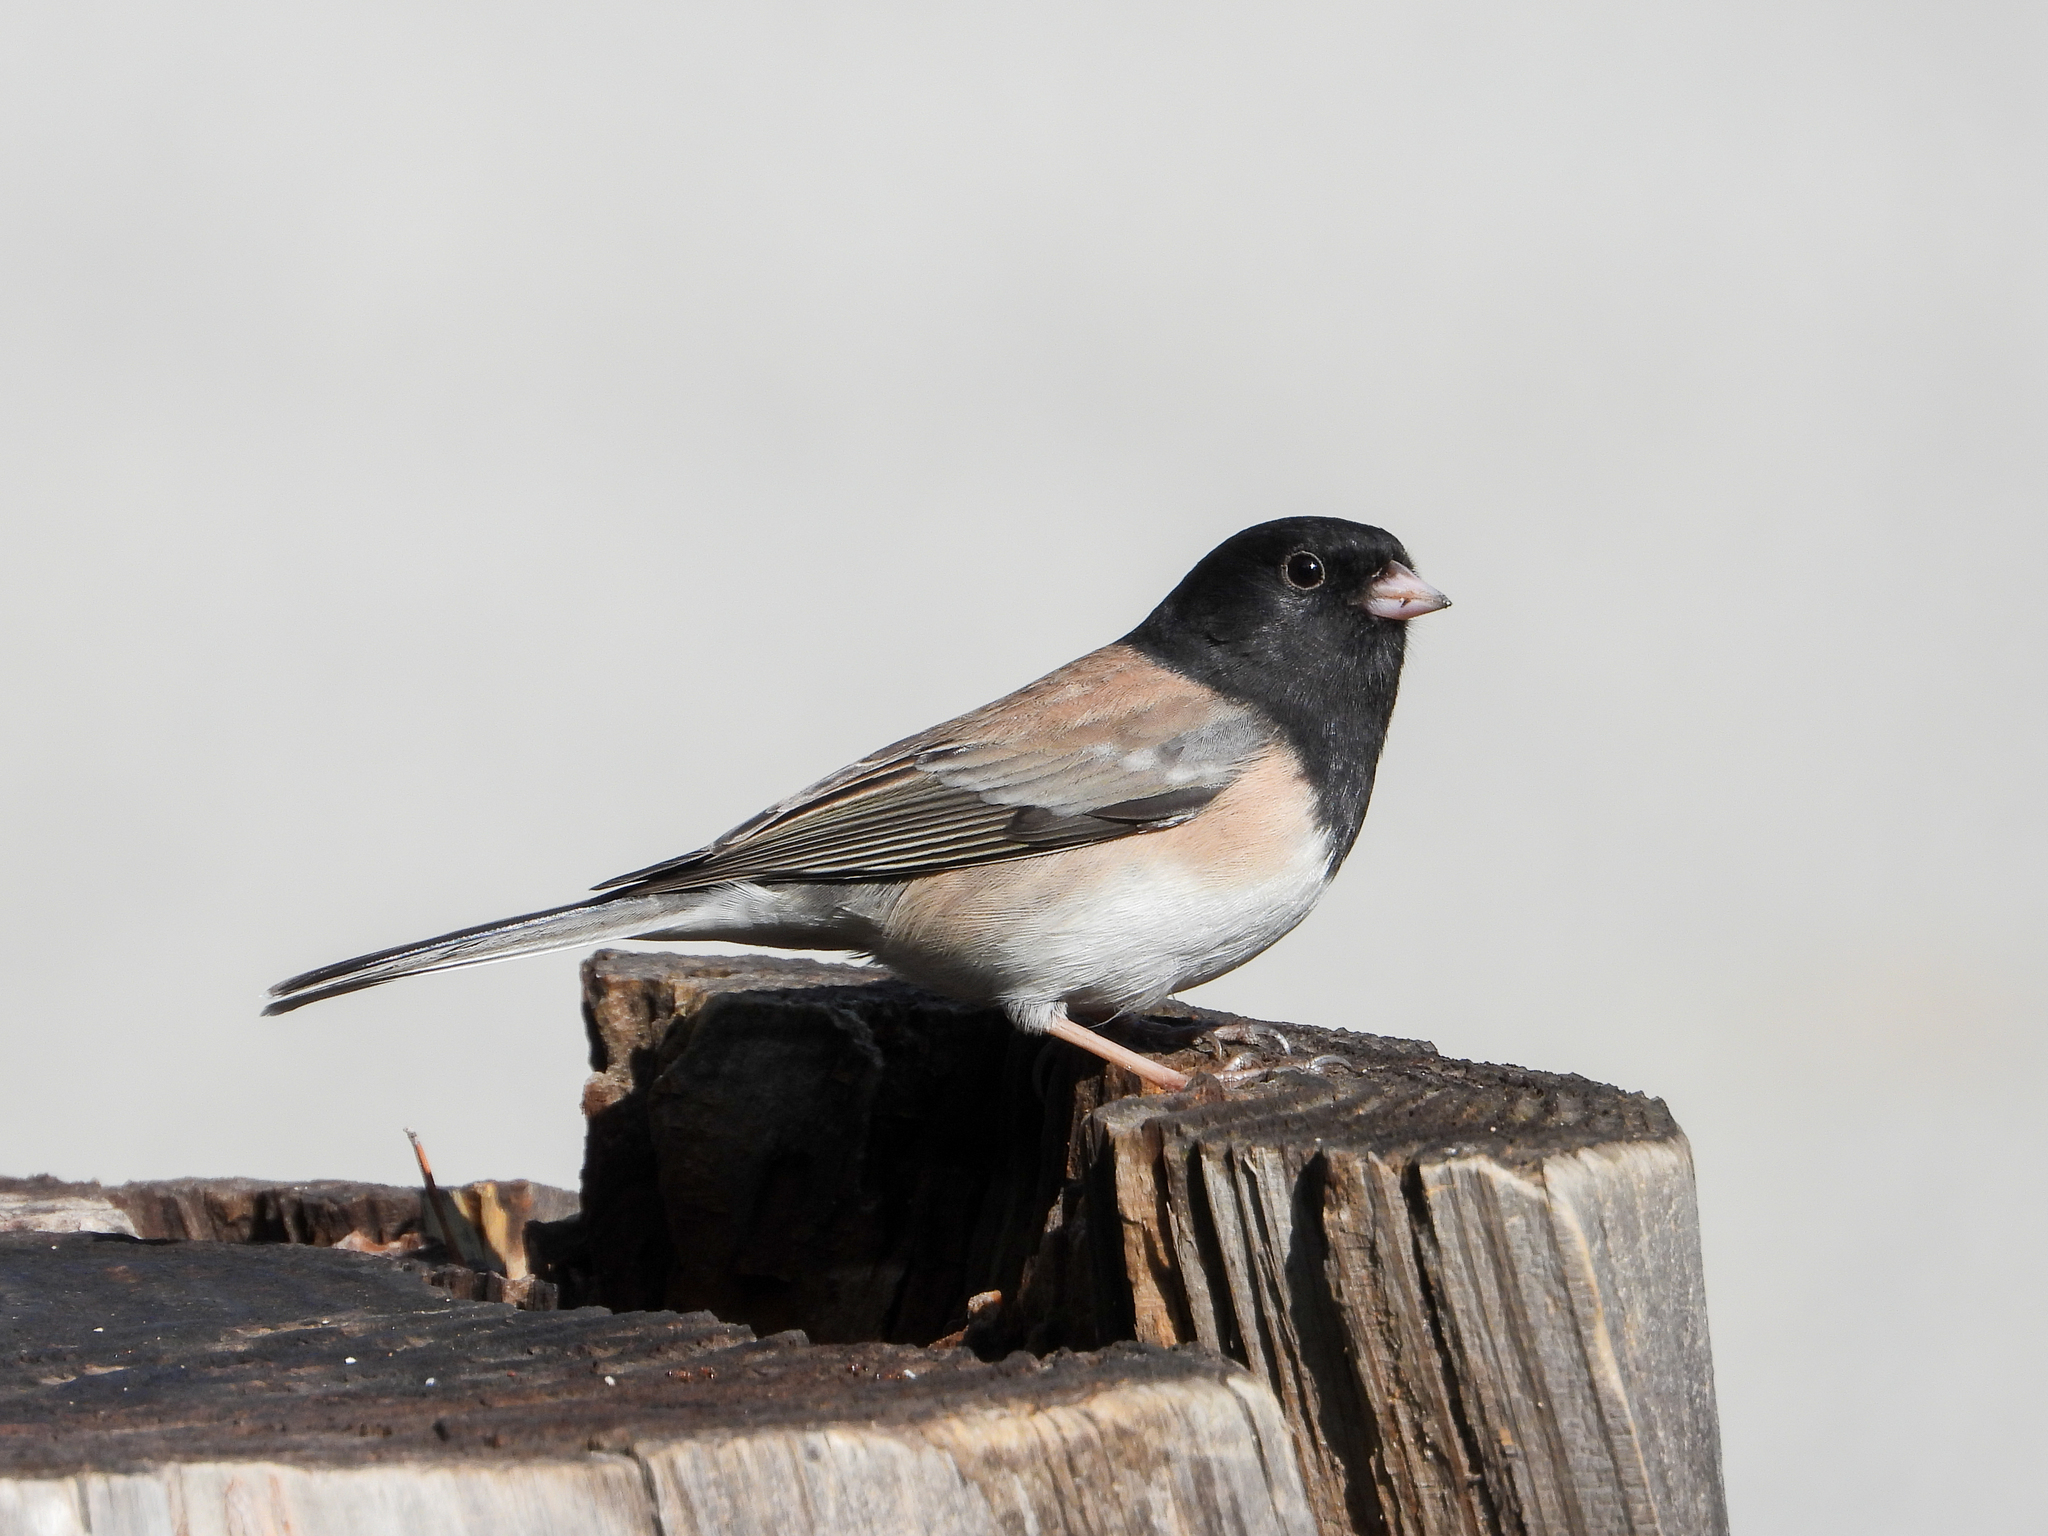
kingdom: Animalia
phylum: Chordata
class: Aves
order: Passeriformes
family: Passerellidae
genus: Junco
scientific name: Junco hyemalis
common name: Dark-eyed junco
